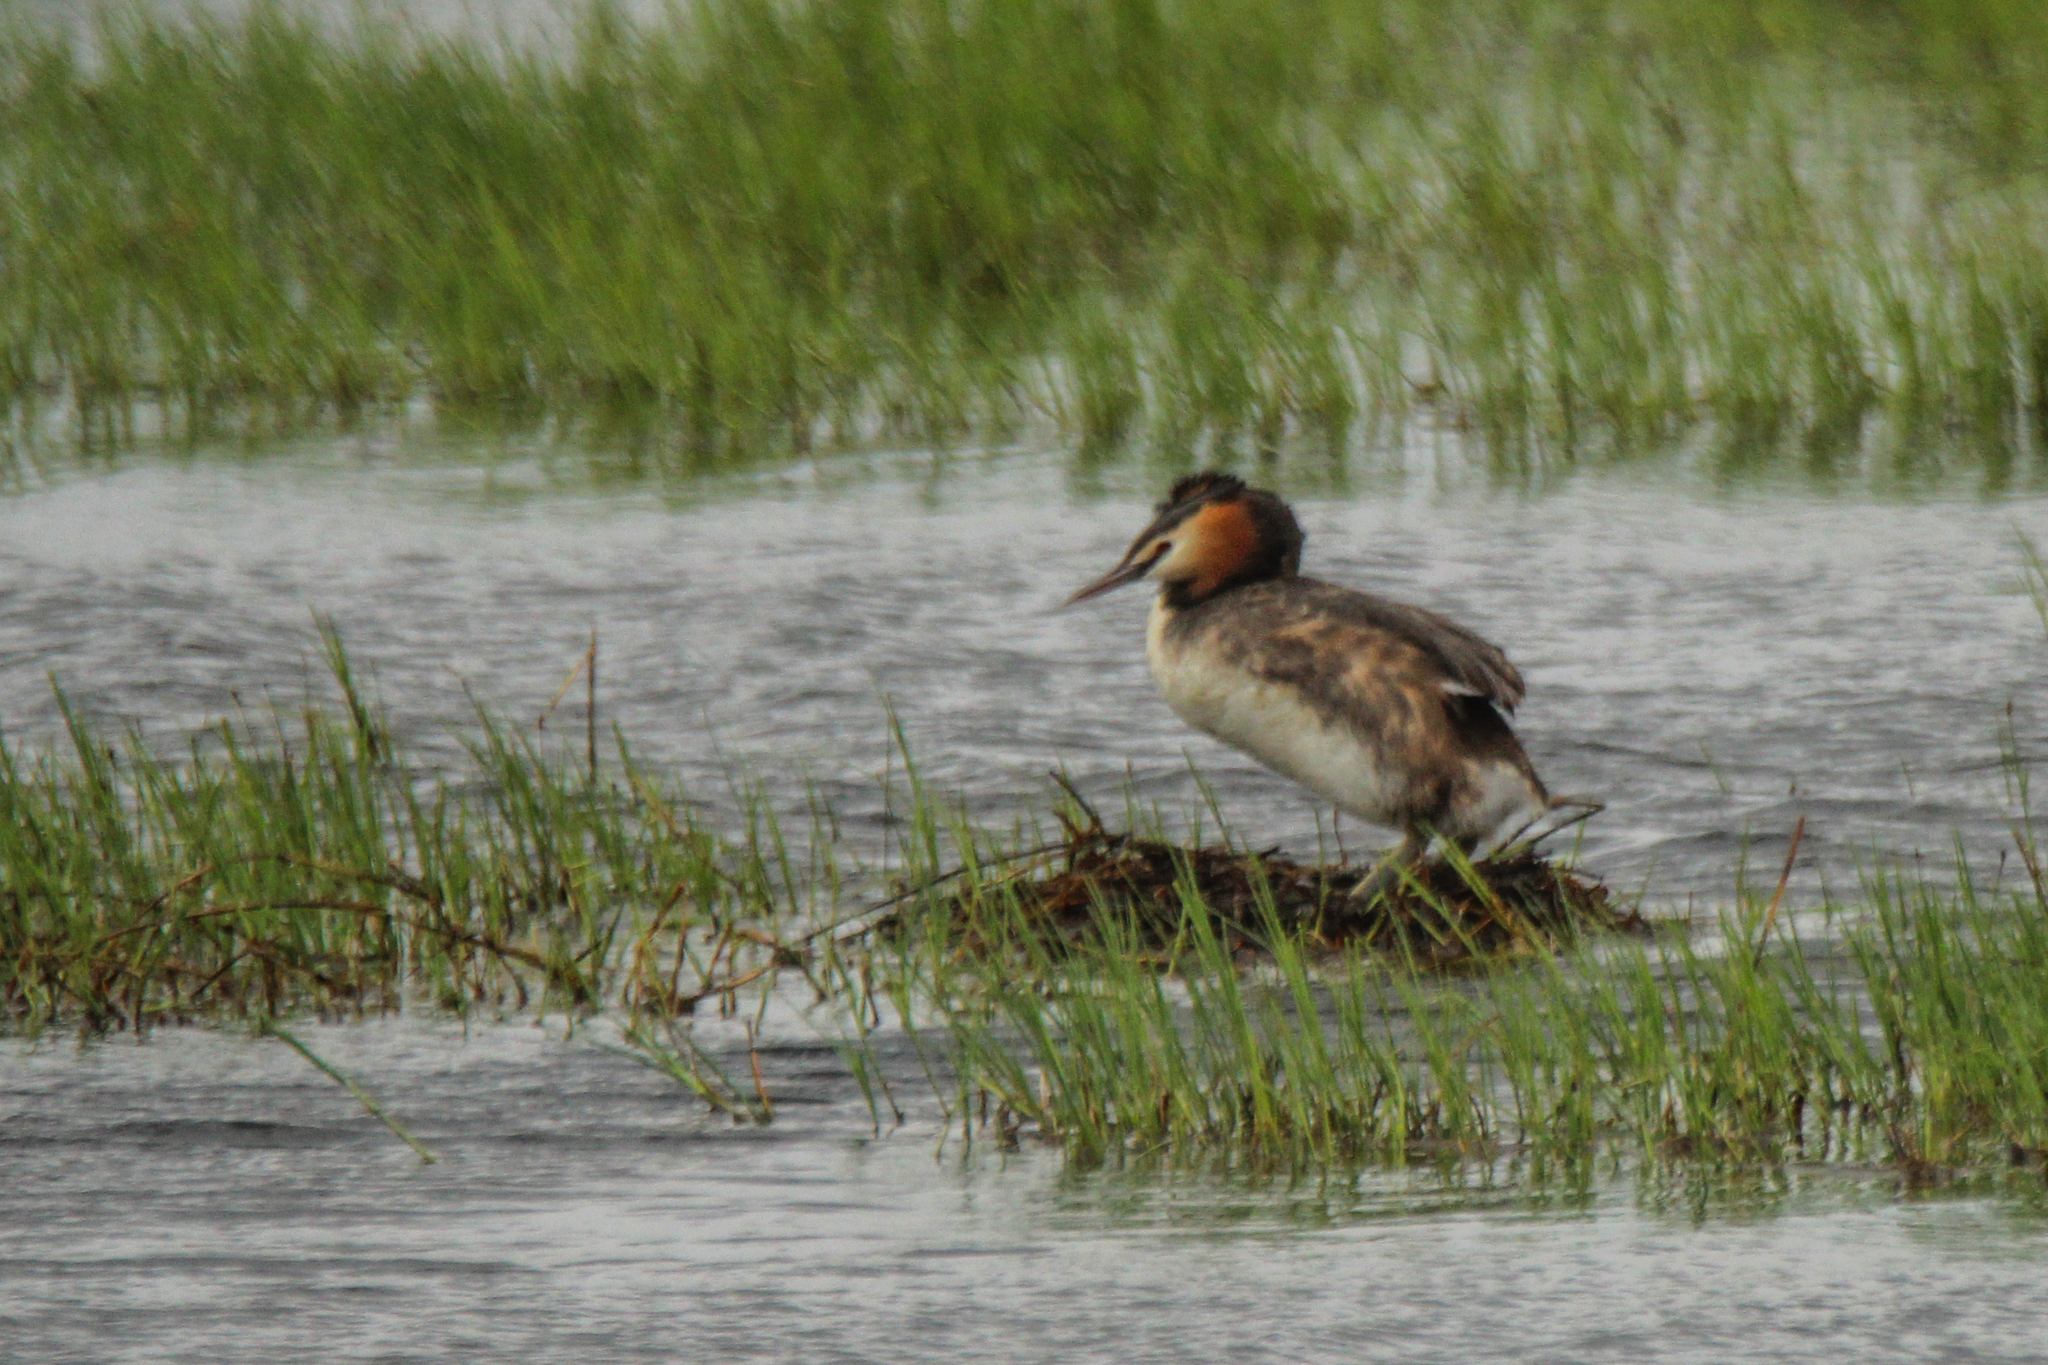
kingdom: Animalia
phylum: Chordata
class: Aves
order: Podicipediformes
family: Podicipedidae
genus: Podiceps
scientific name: Podiceps cristatus
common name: Great crested grebe
